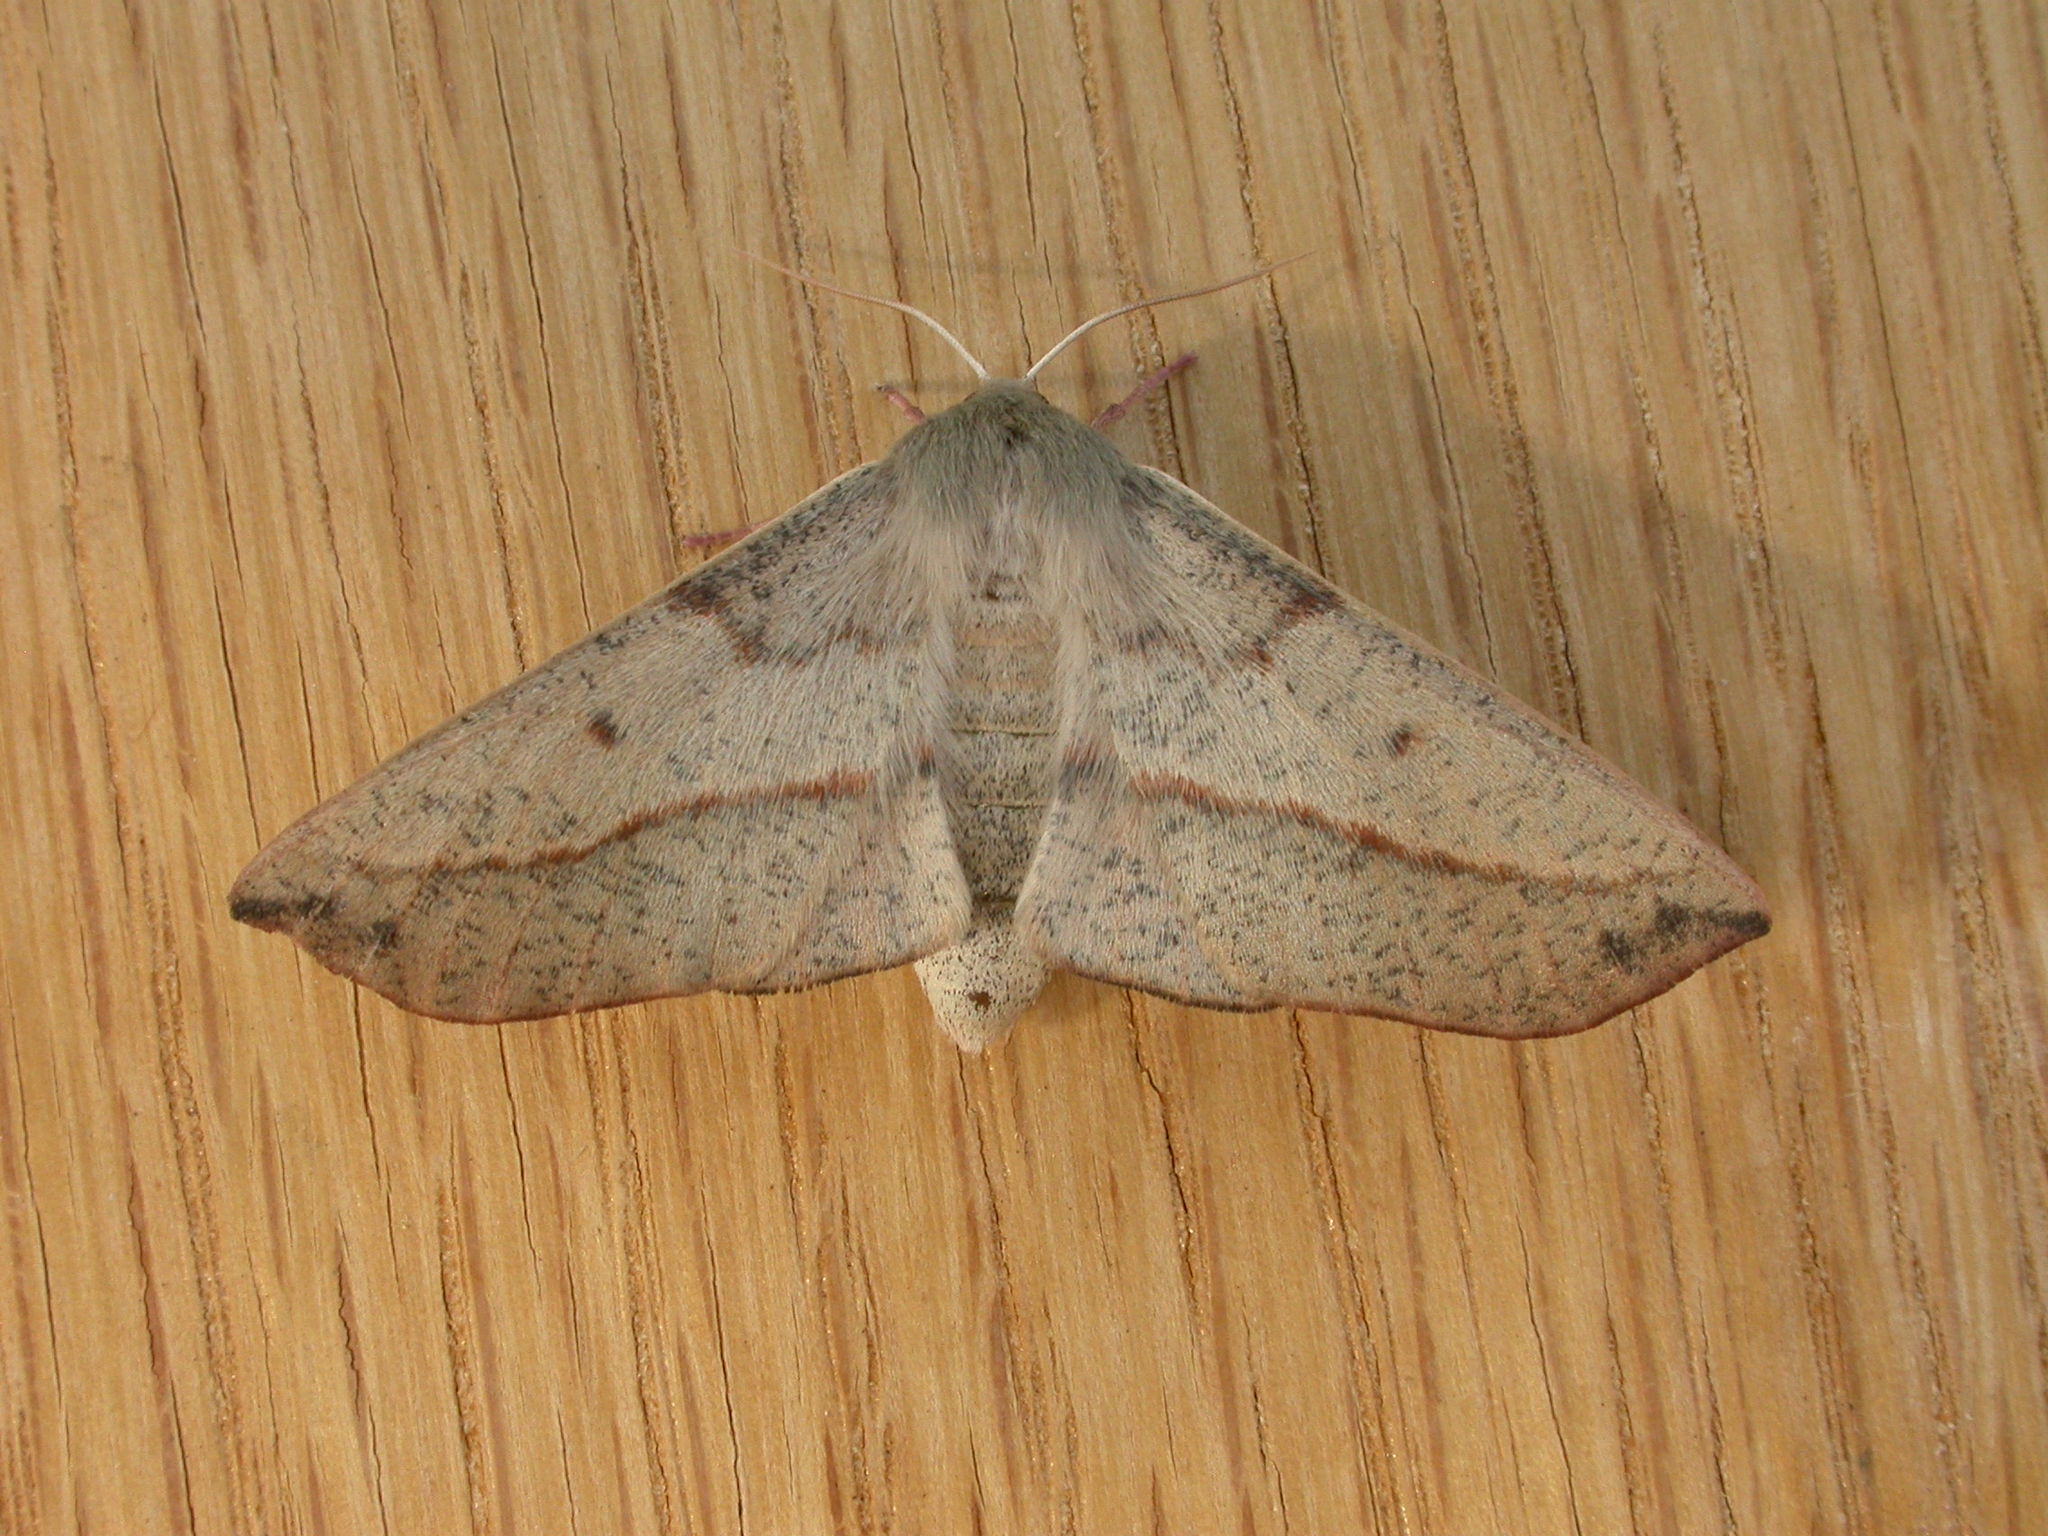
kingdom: Animalia
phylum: Arthropoda
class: Insecta
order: Lepidoptera
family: Geometridae
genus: Antictenia
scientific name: Antictenia punctunculus
